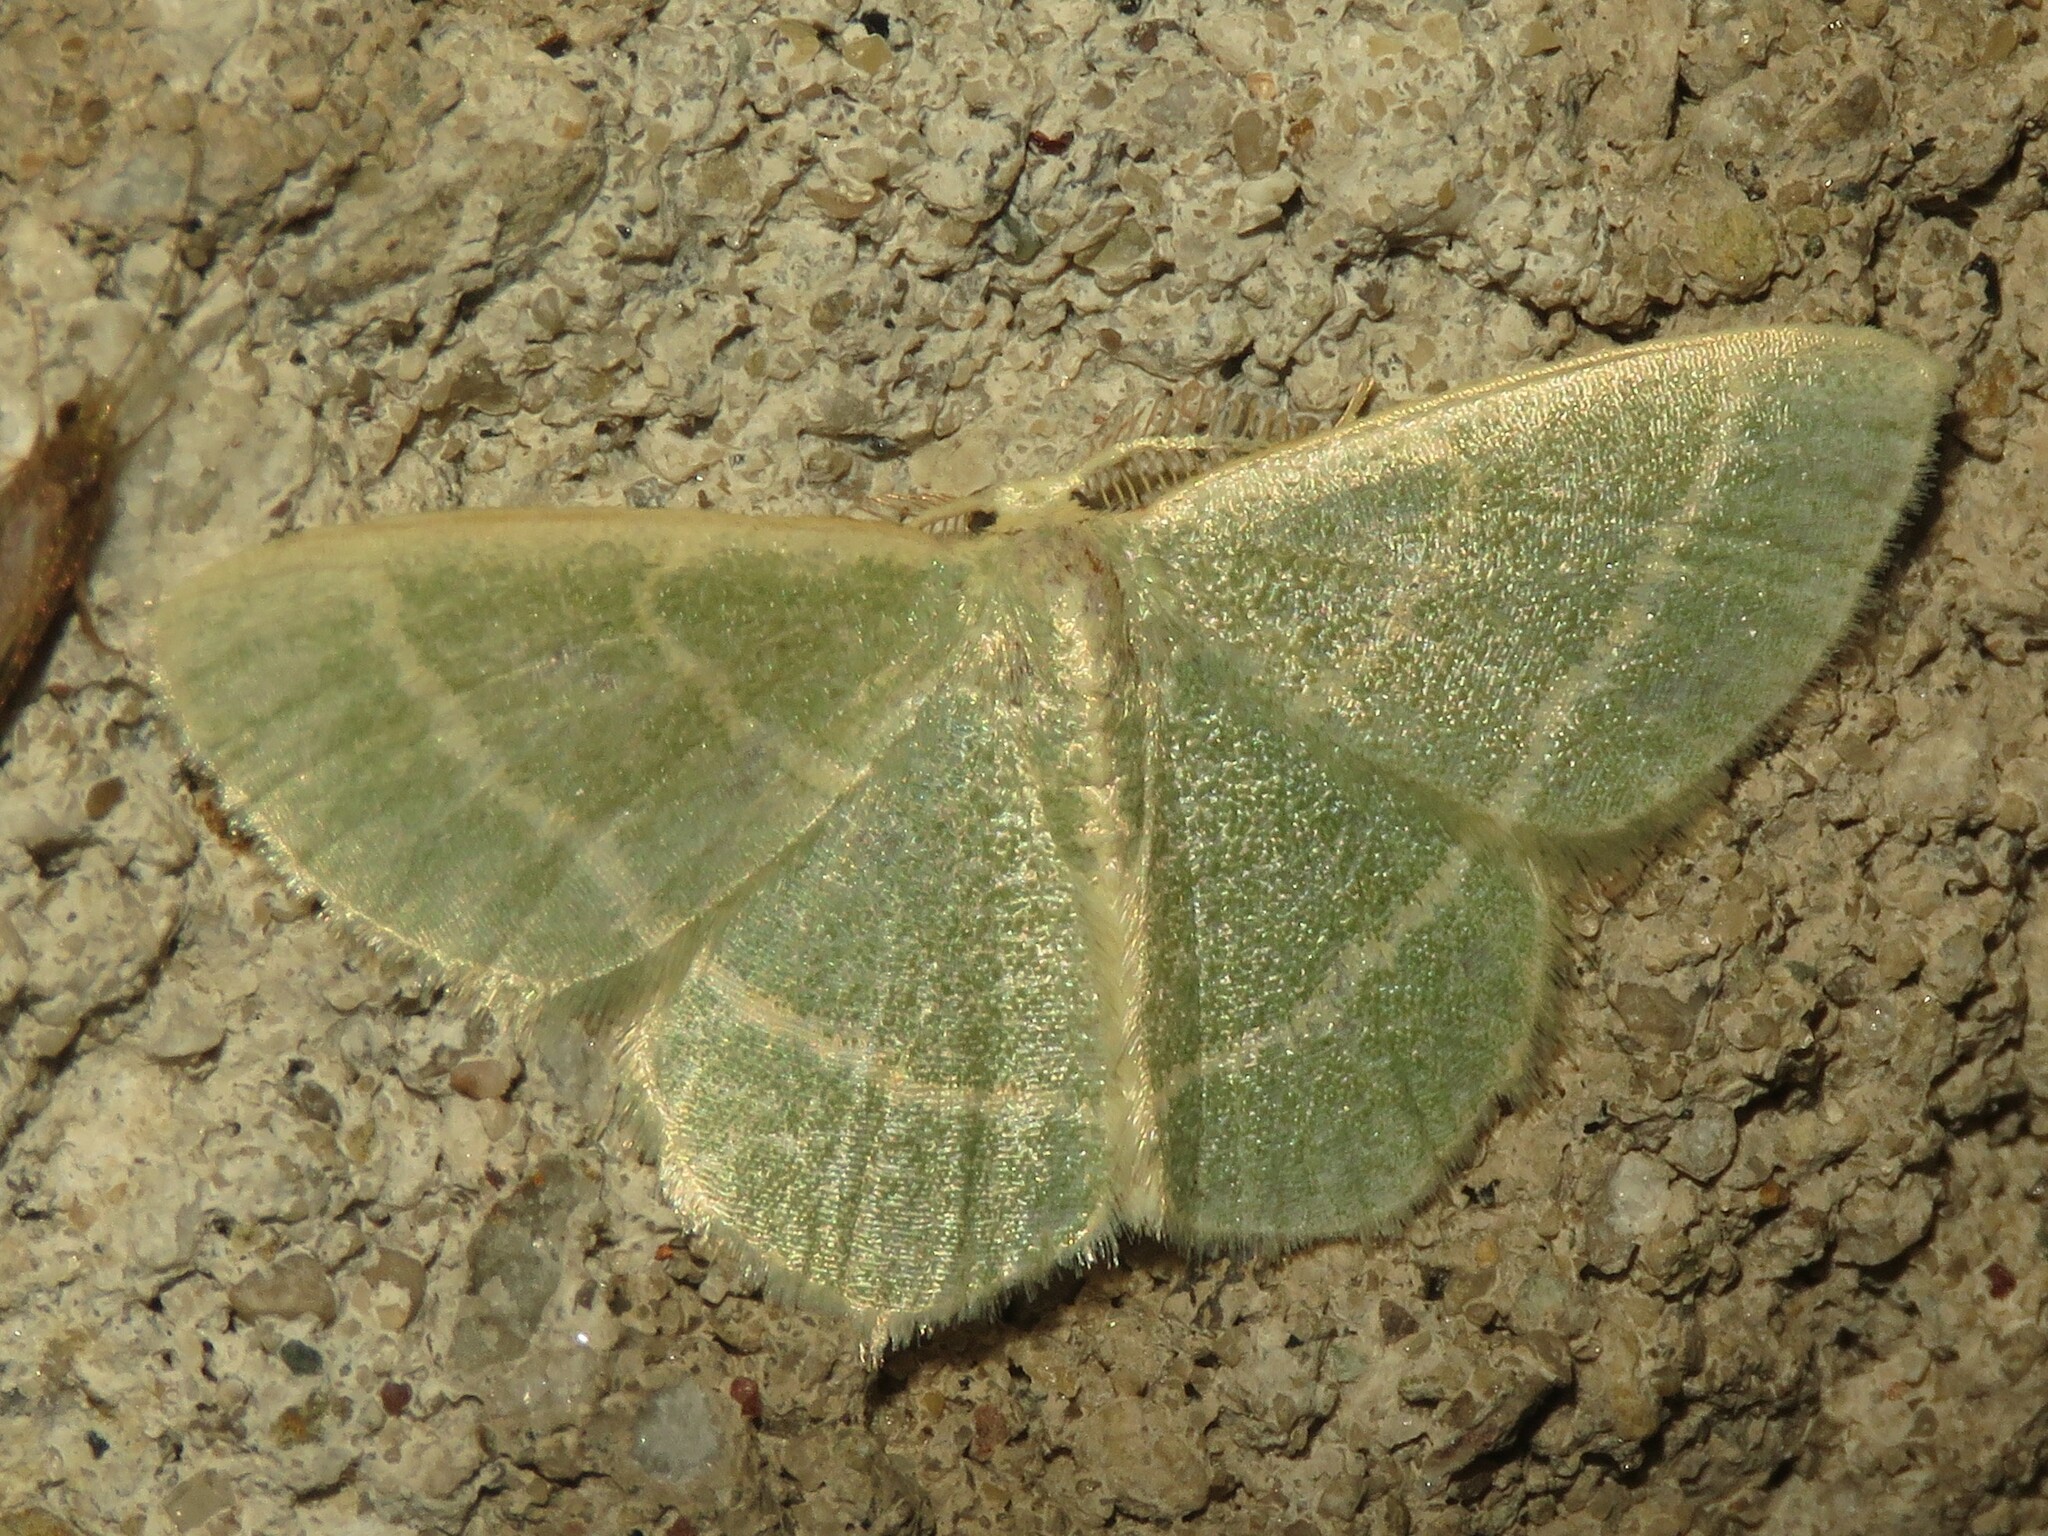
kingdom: Animalia
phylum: Arthropoda
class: Insecta
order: Lepidoptera
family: Geometridae
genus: Chlorochlamys
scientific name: Chlorochlamys chloroleucaria
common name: Blackberry looper
